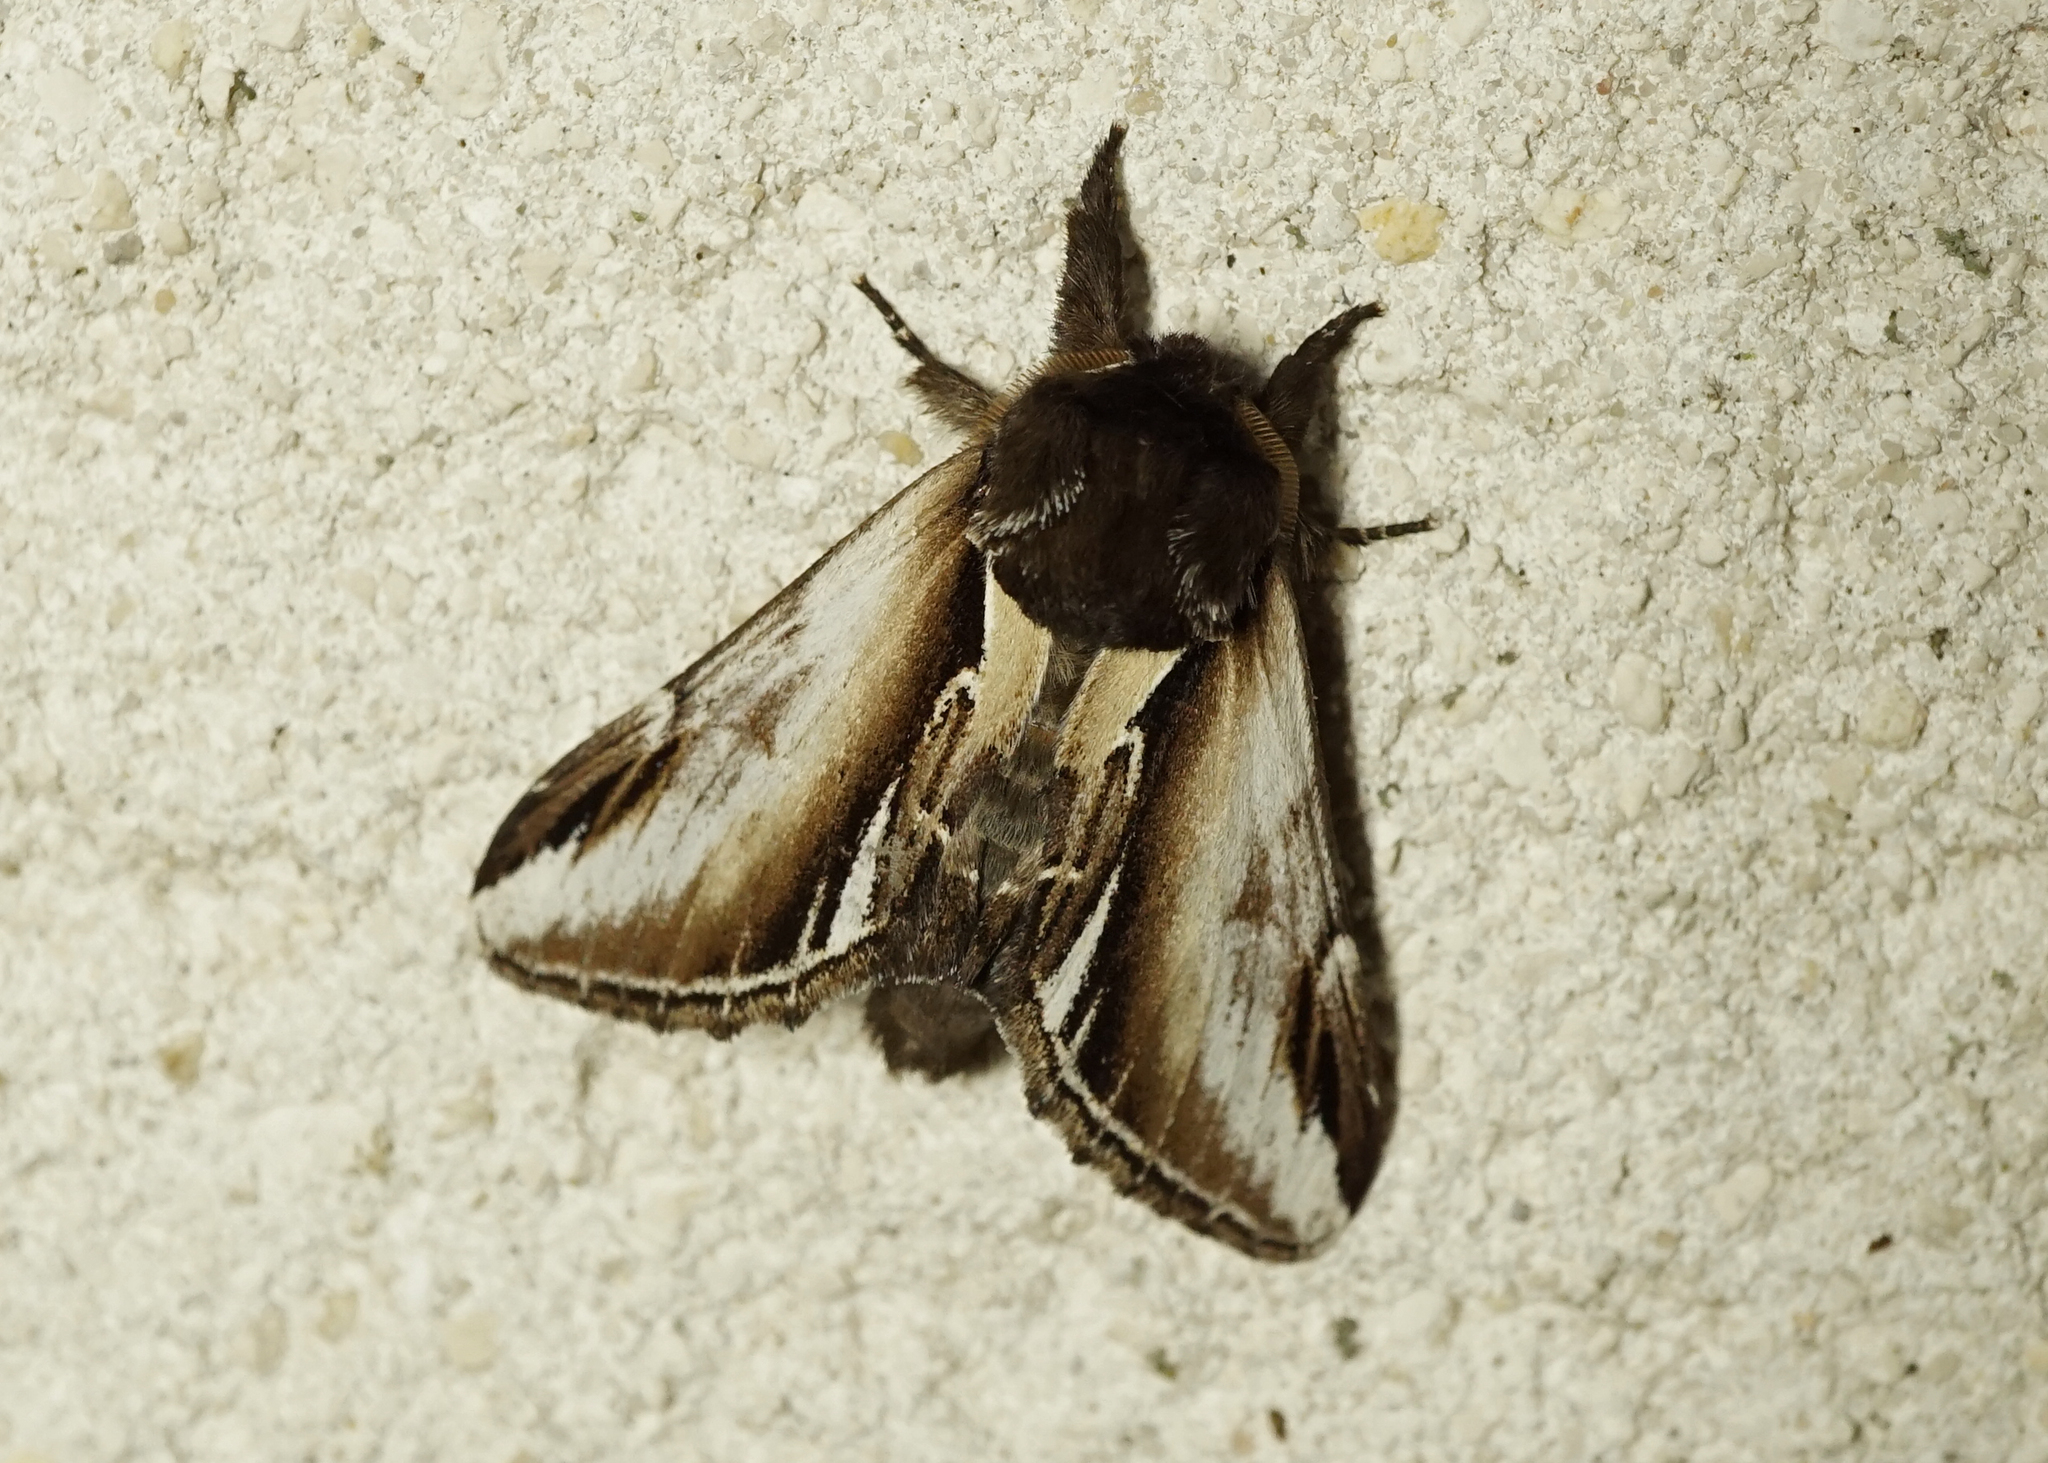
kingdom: Animalia
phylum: Arthropoda
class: Insecta
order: Lepidoptera
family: Notodontidae
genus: Pheosia
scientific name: Pheosia gnoma
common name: Lesser swallow prominent
